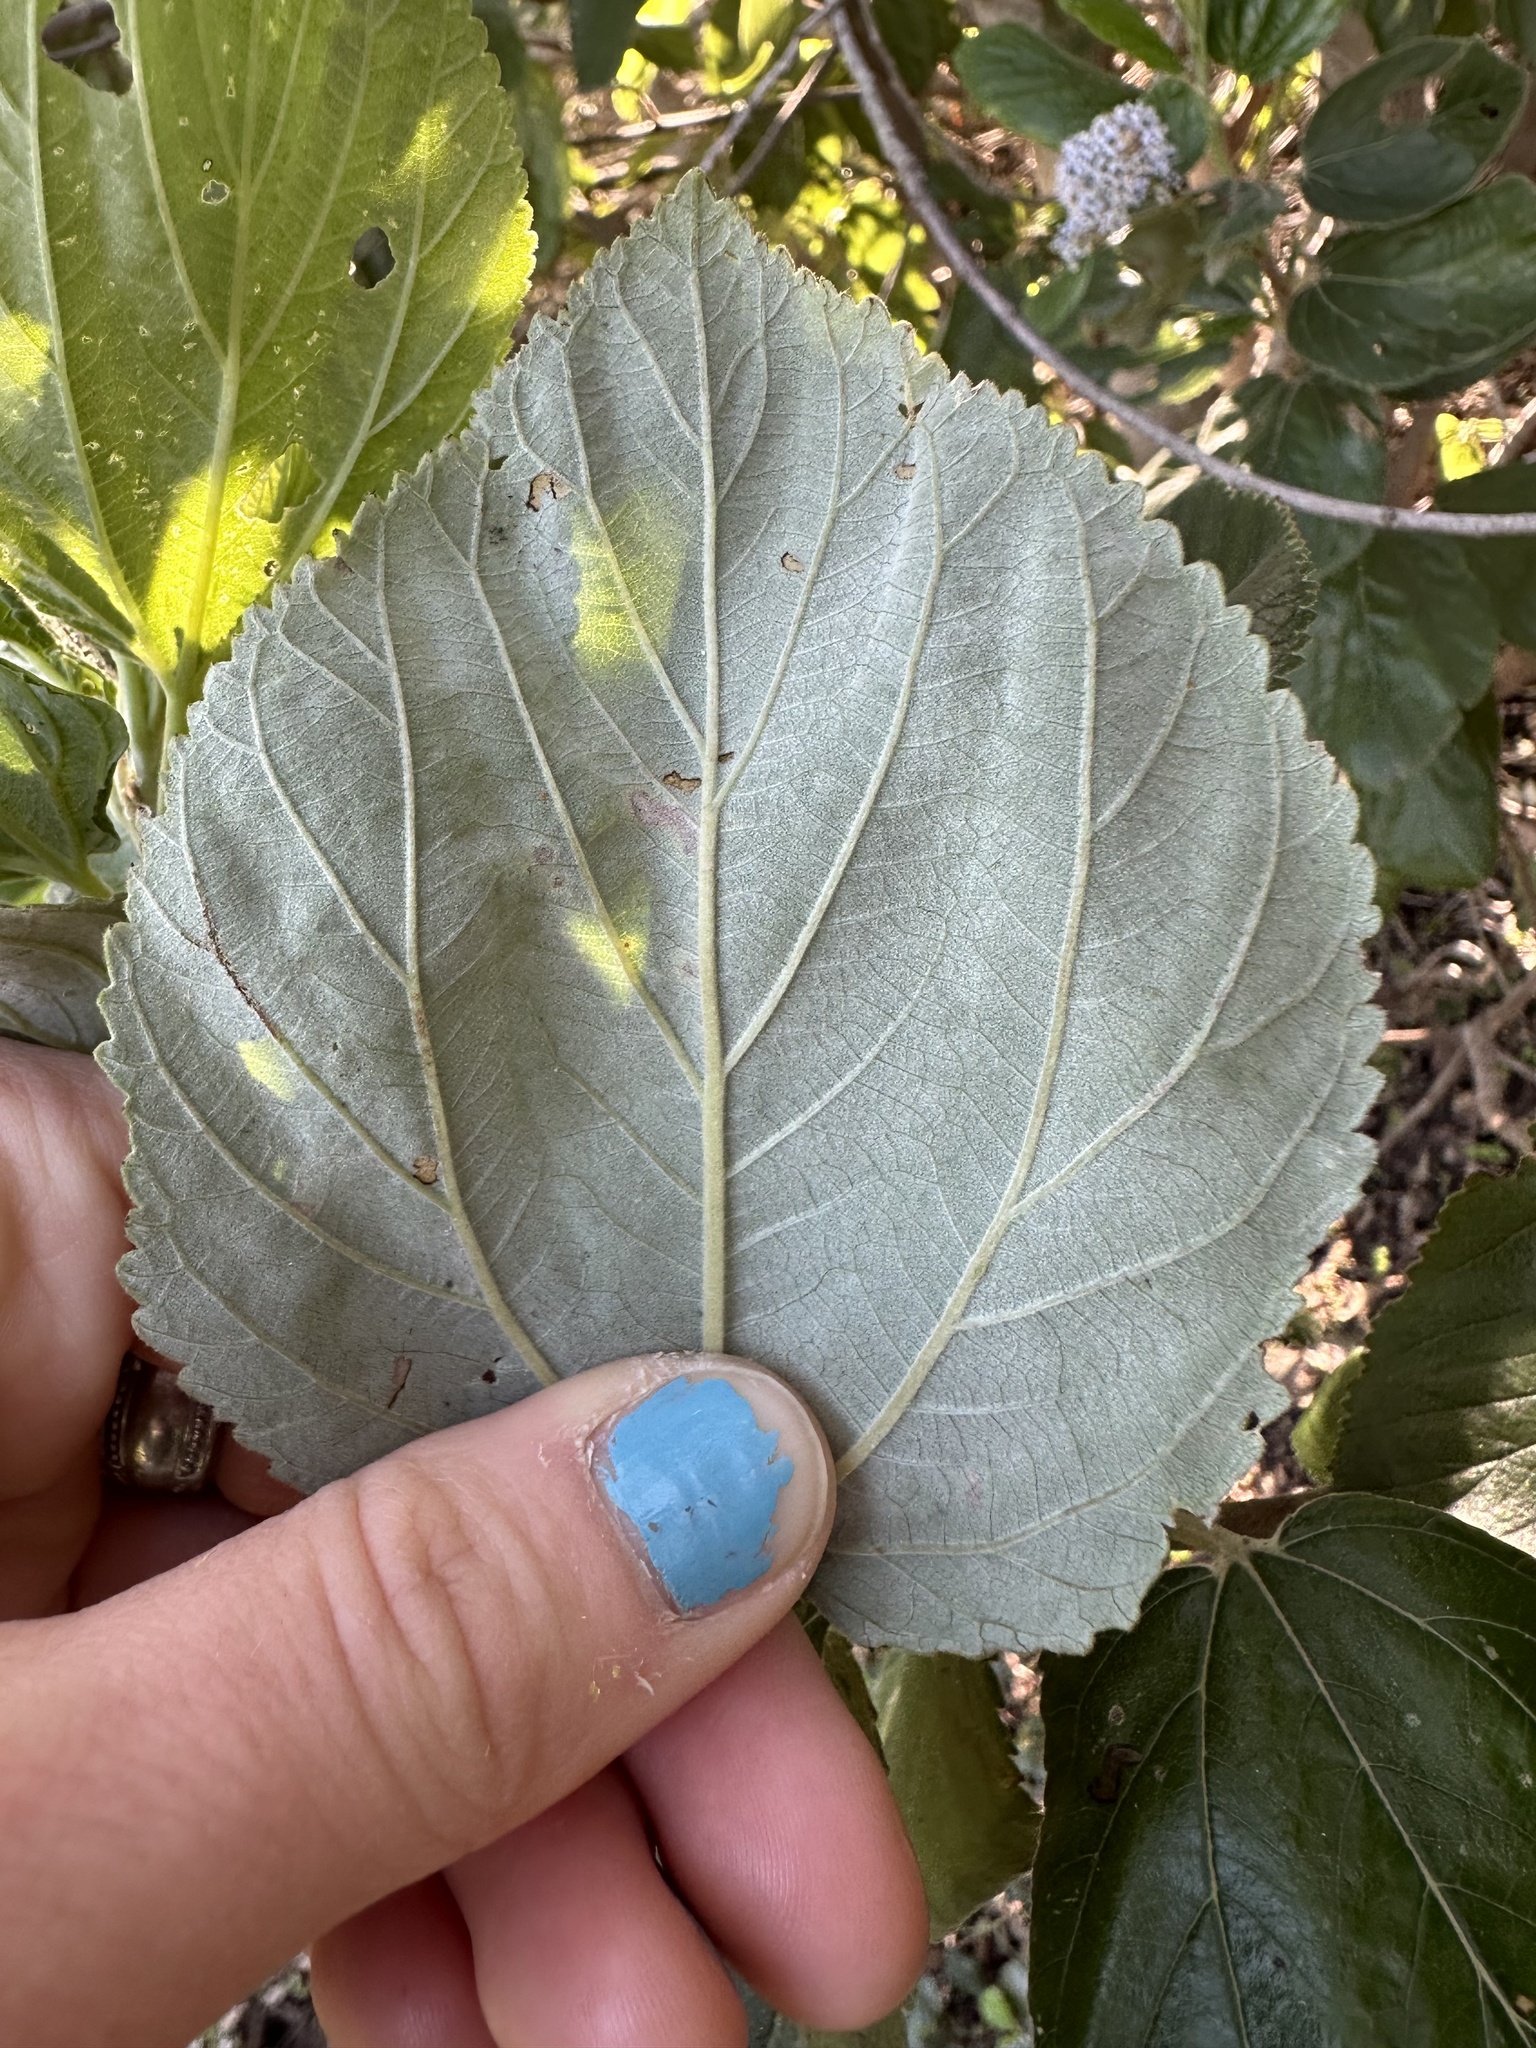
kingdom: Plantae
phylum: Tracheophyta
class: Magnoliopsida
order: Rosales
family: Rhamnaceae
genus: Ceanothus
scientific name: Ceanothus arboreus
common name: Catalina mountain-lilac
